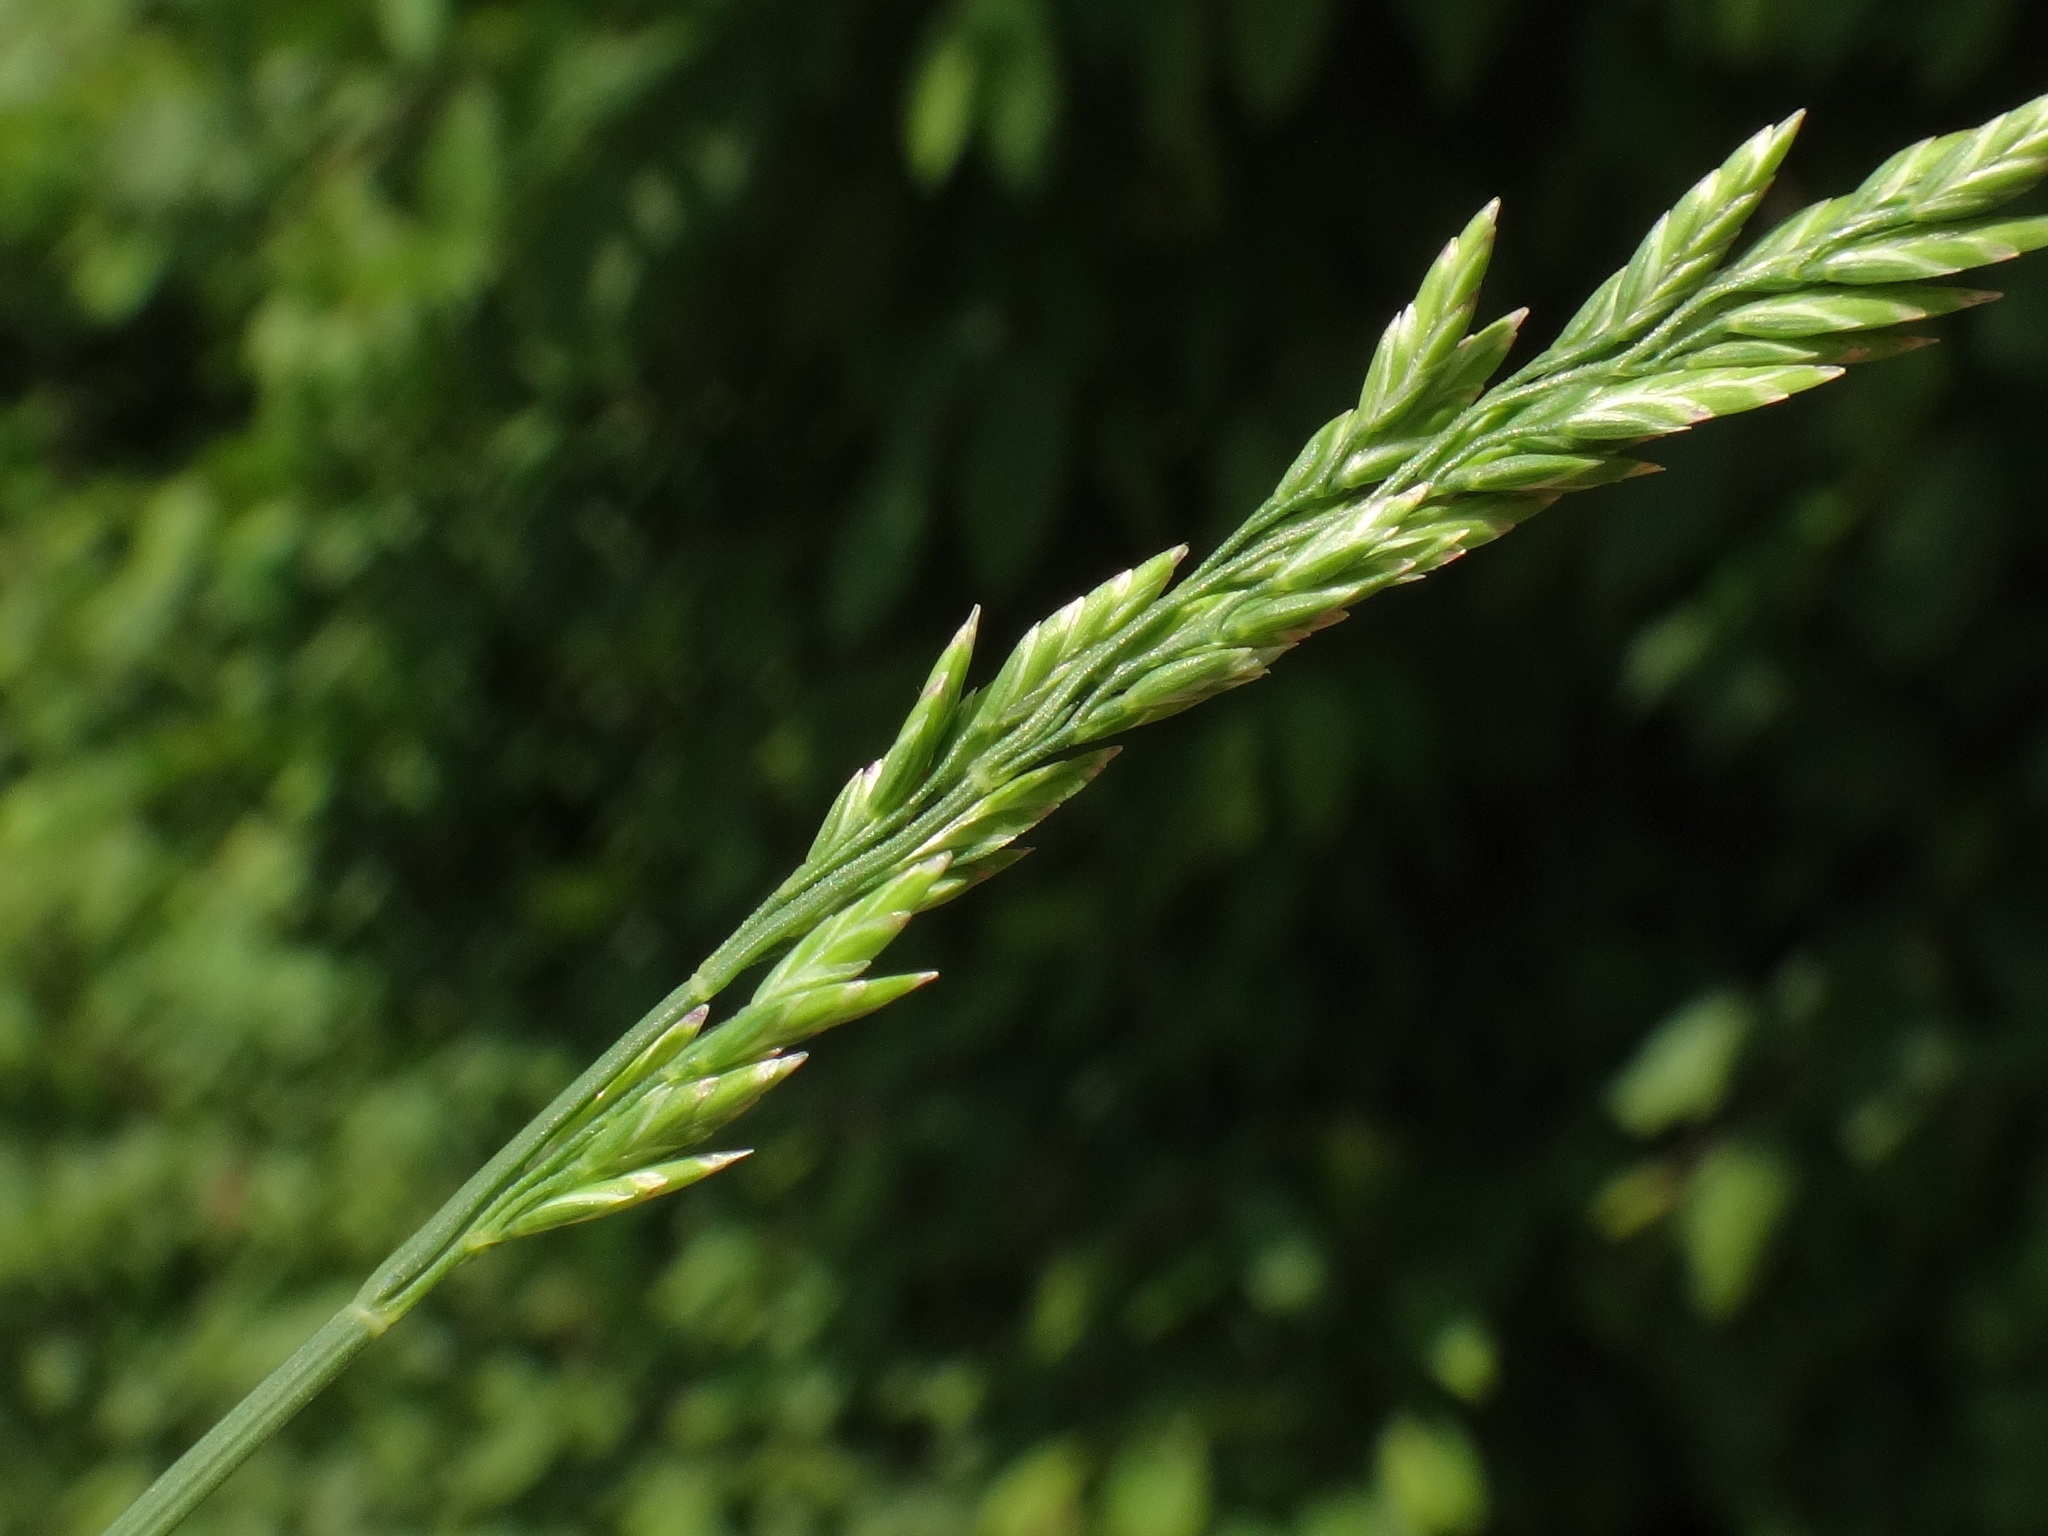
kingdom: Plantae
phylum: Tracheophyta
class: Liliopsida
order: Poales
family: Poaceae
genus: Poa
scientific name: Poa compressa
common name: Canada bluegrass
